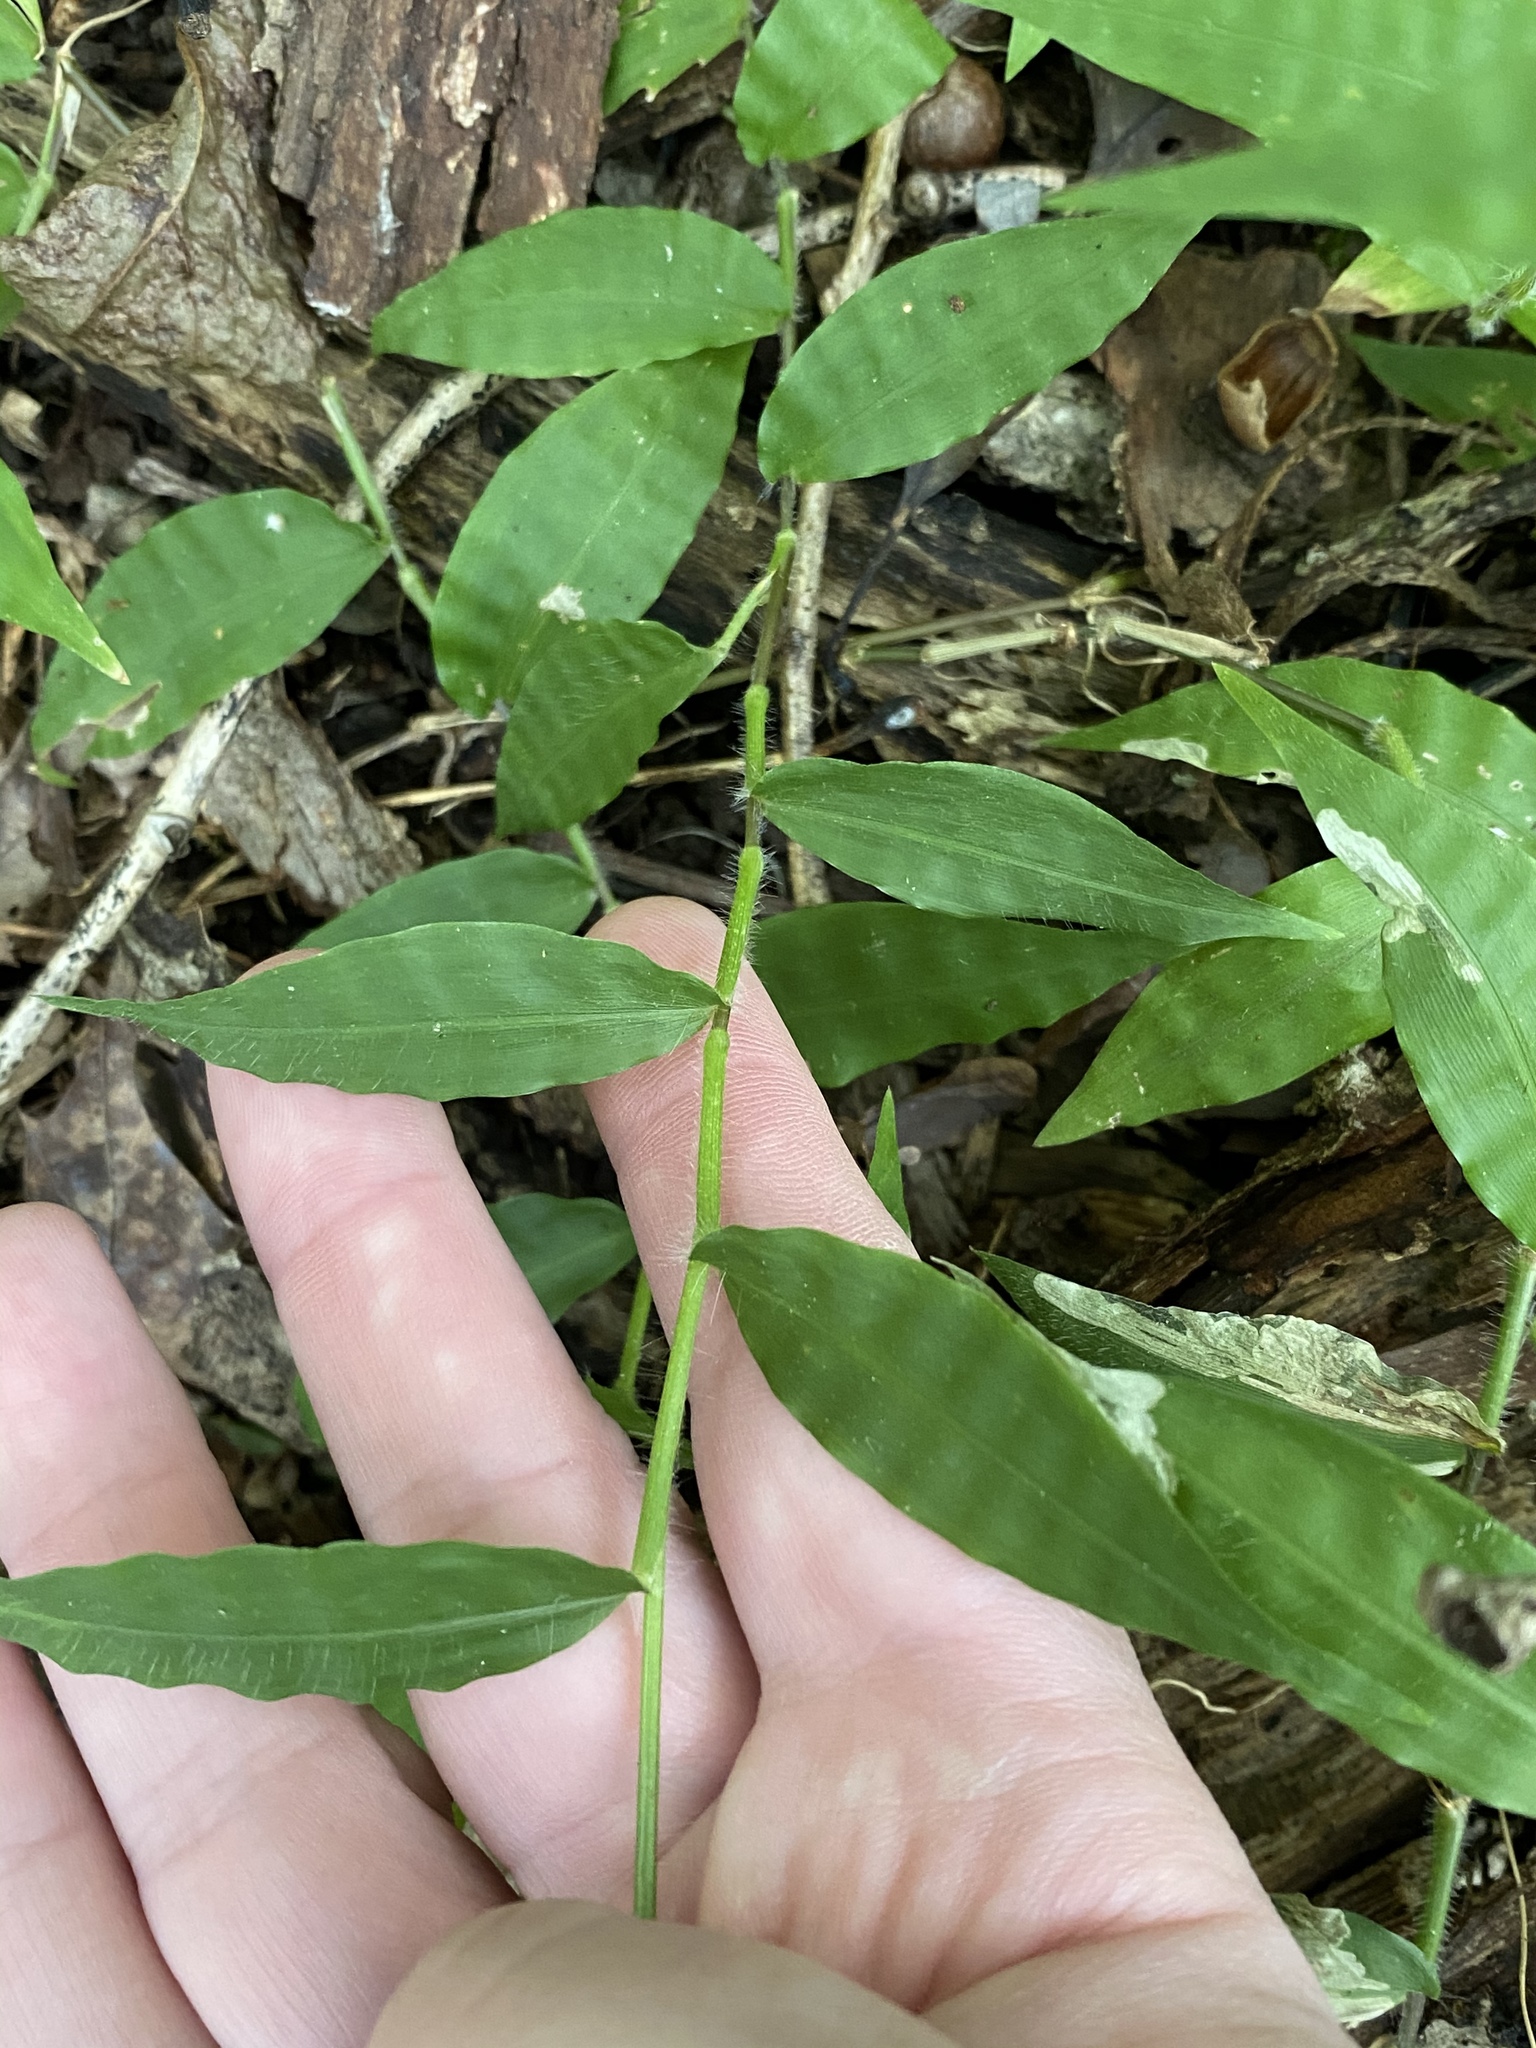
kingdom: Plantae
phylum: Tracheophyta
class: Liliopsida
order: Poales
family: Poaceae
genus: Oplismenus
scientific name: Oplismenus undulatifolius
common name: Wavyleaf basketgrass
